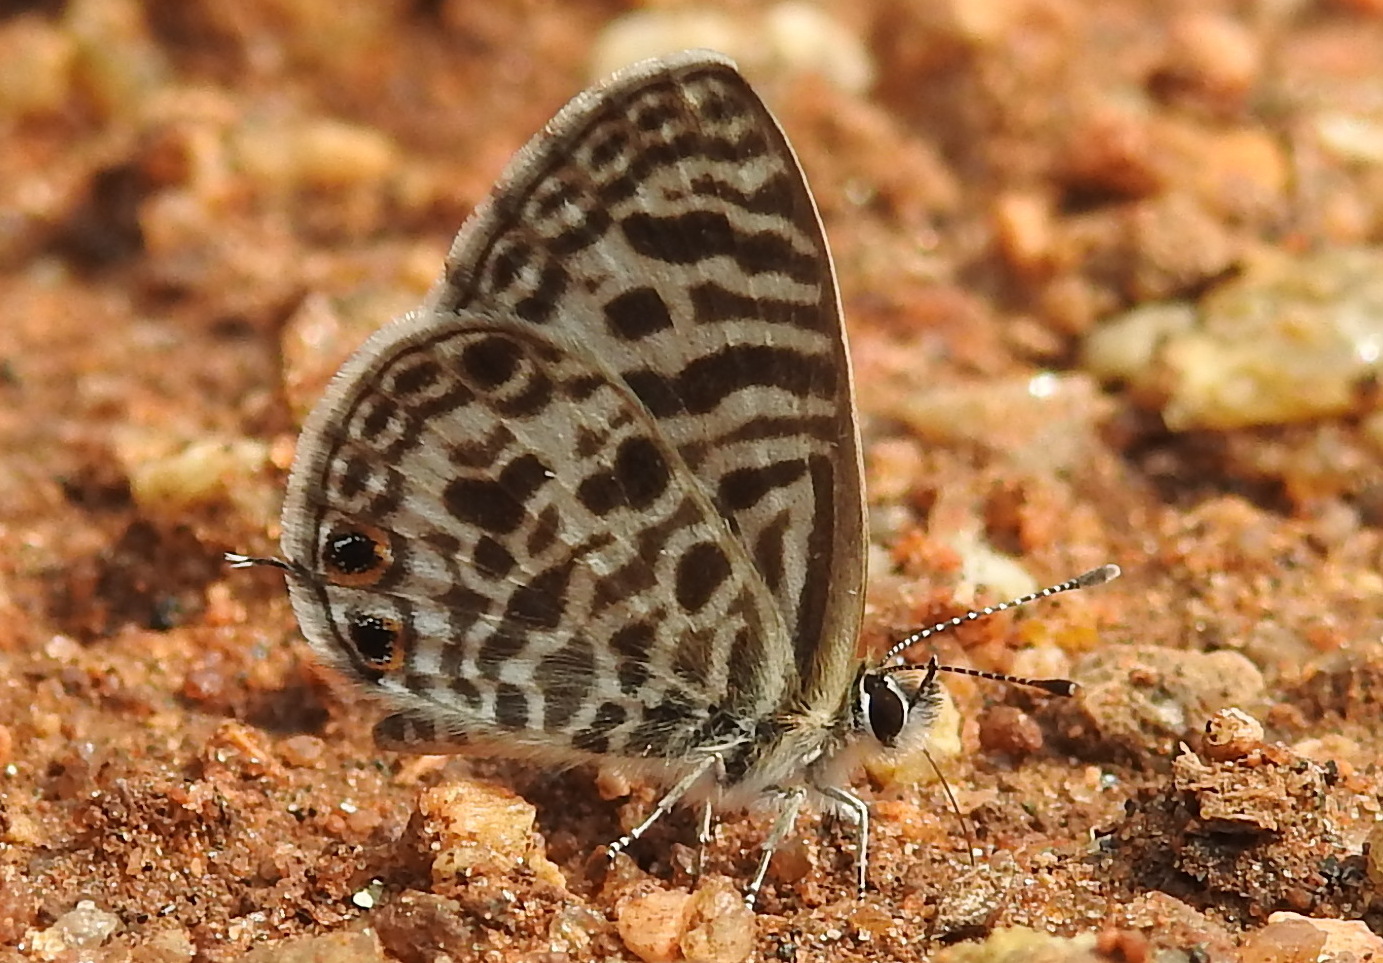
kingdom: Animalia
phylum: Arthropoda
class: Insecta
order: Lepidoptera
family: Lycaenidae
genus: Leptotes
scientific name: Leptotes plinius
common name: Zebra blue
